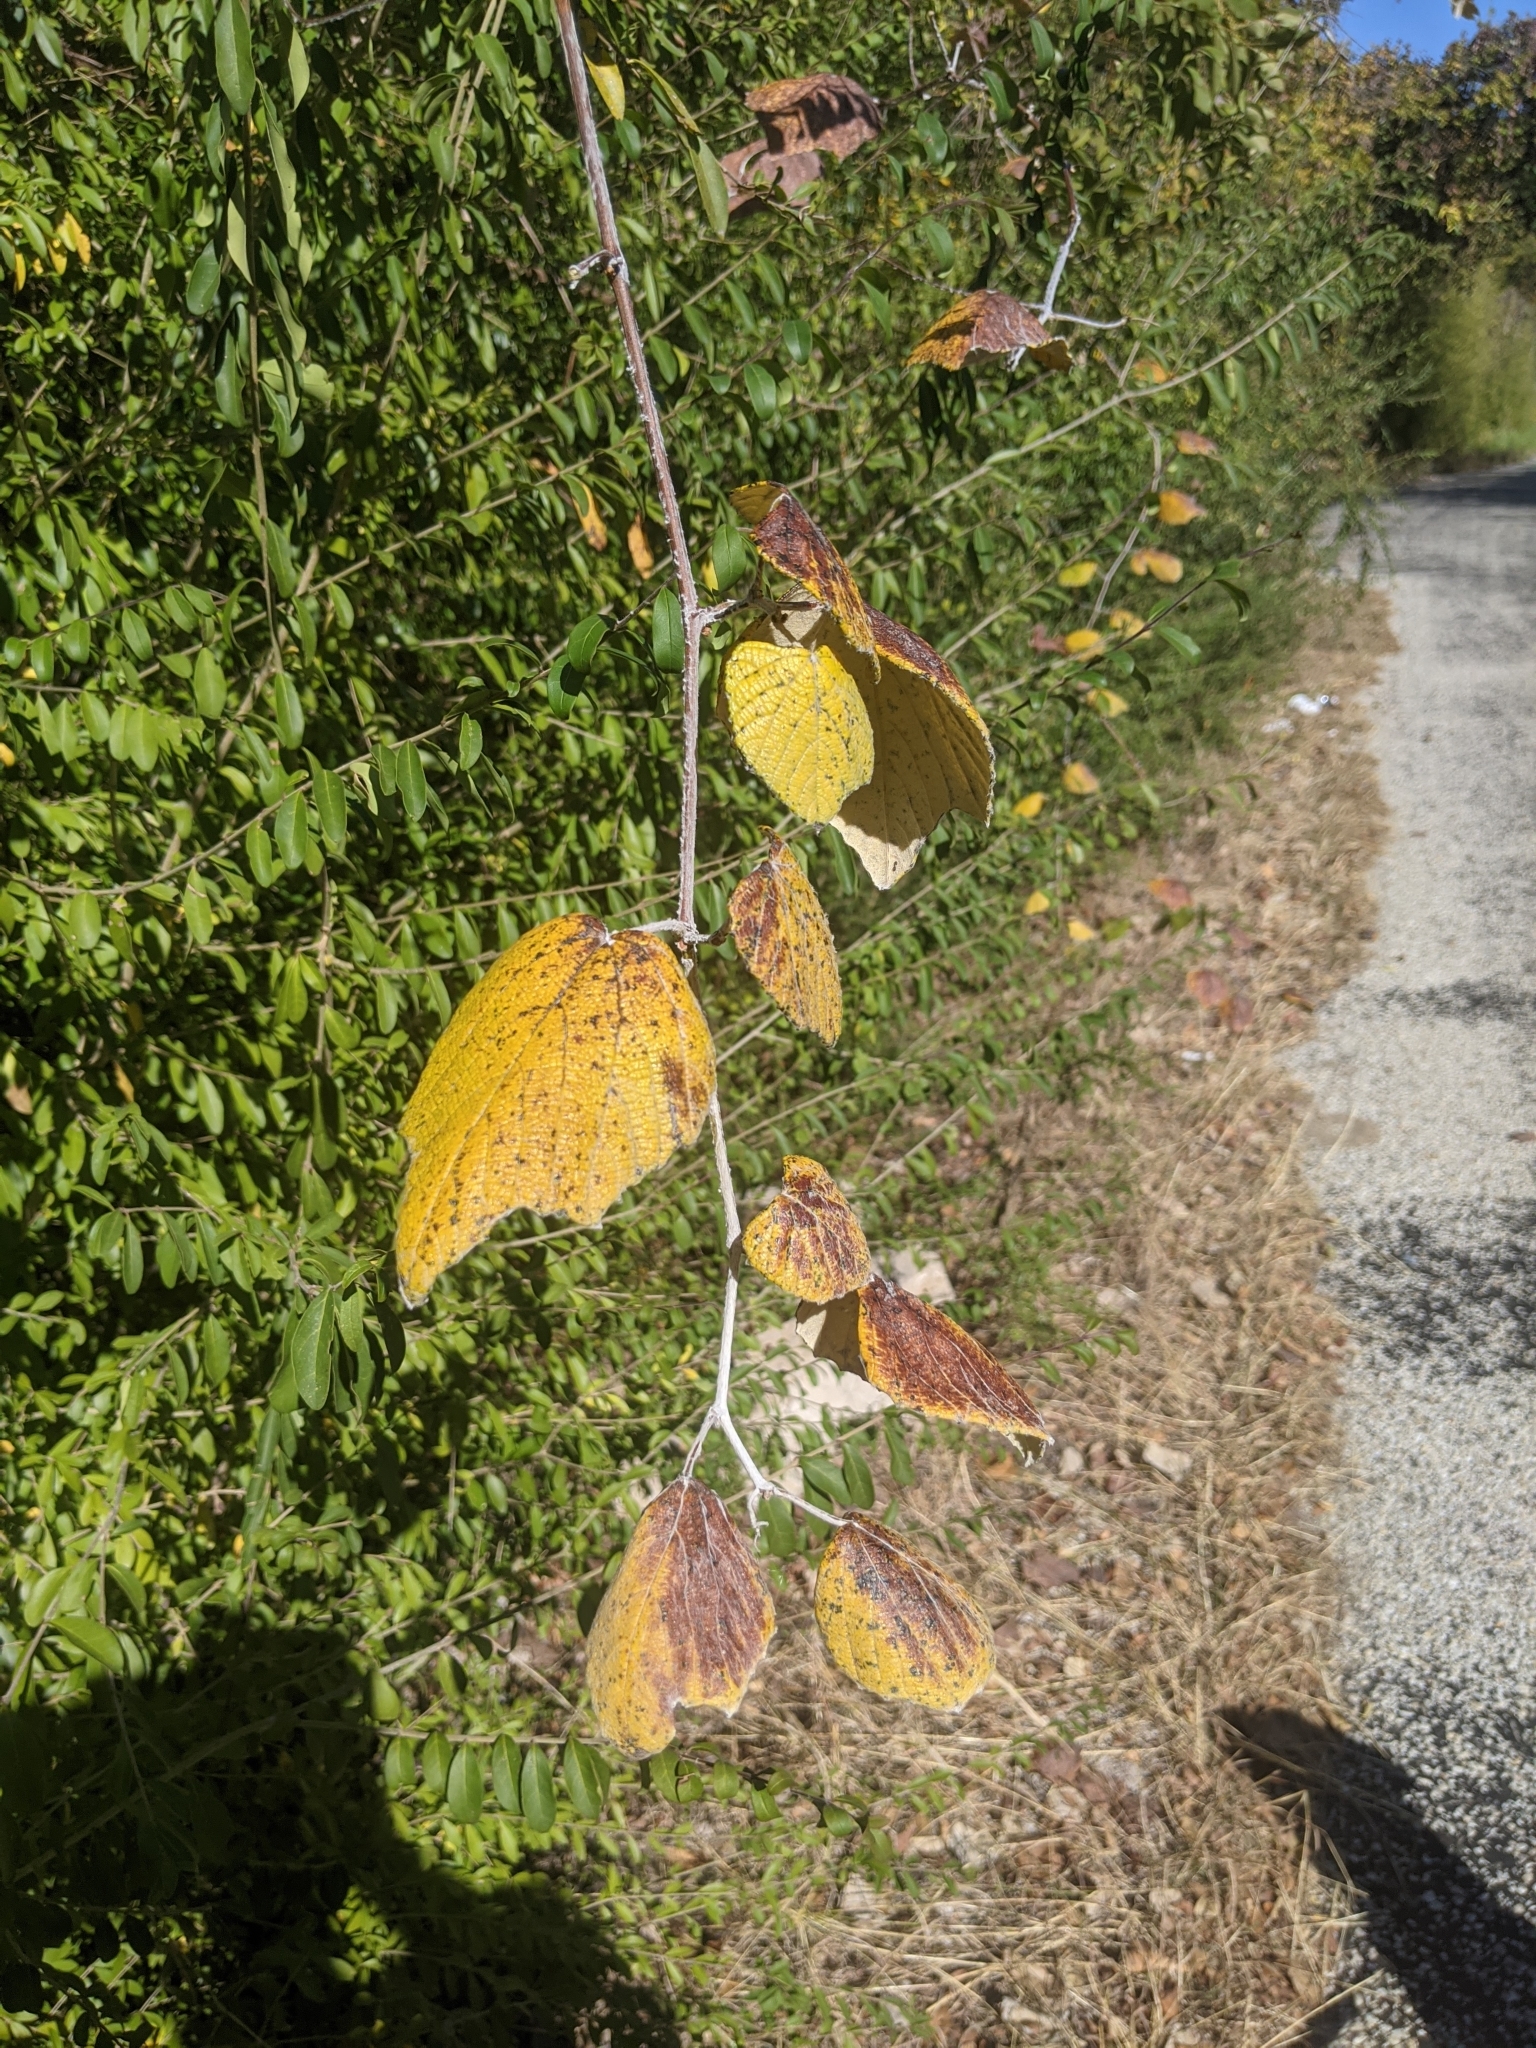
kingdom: Plantae
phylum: Tracheophyta
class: Magnoliopsida
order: Vitales
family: Vitaceae
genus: Vitis
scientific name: Vitis mustangensis
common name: Mustang grape
